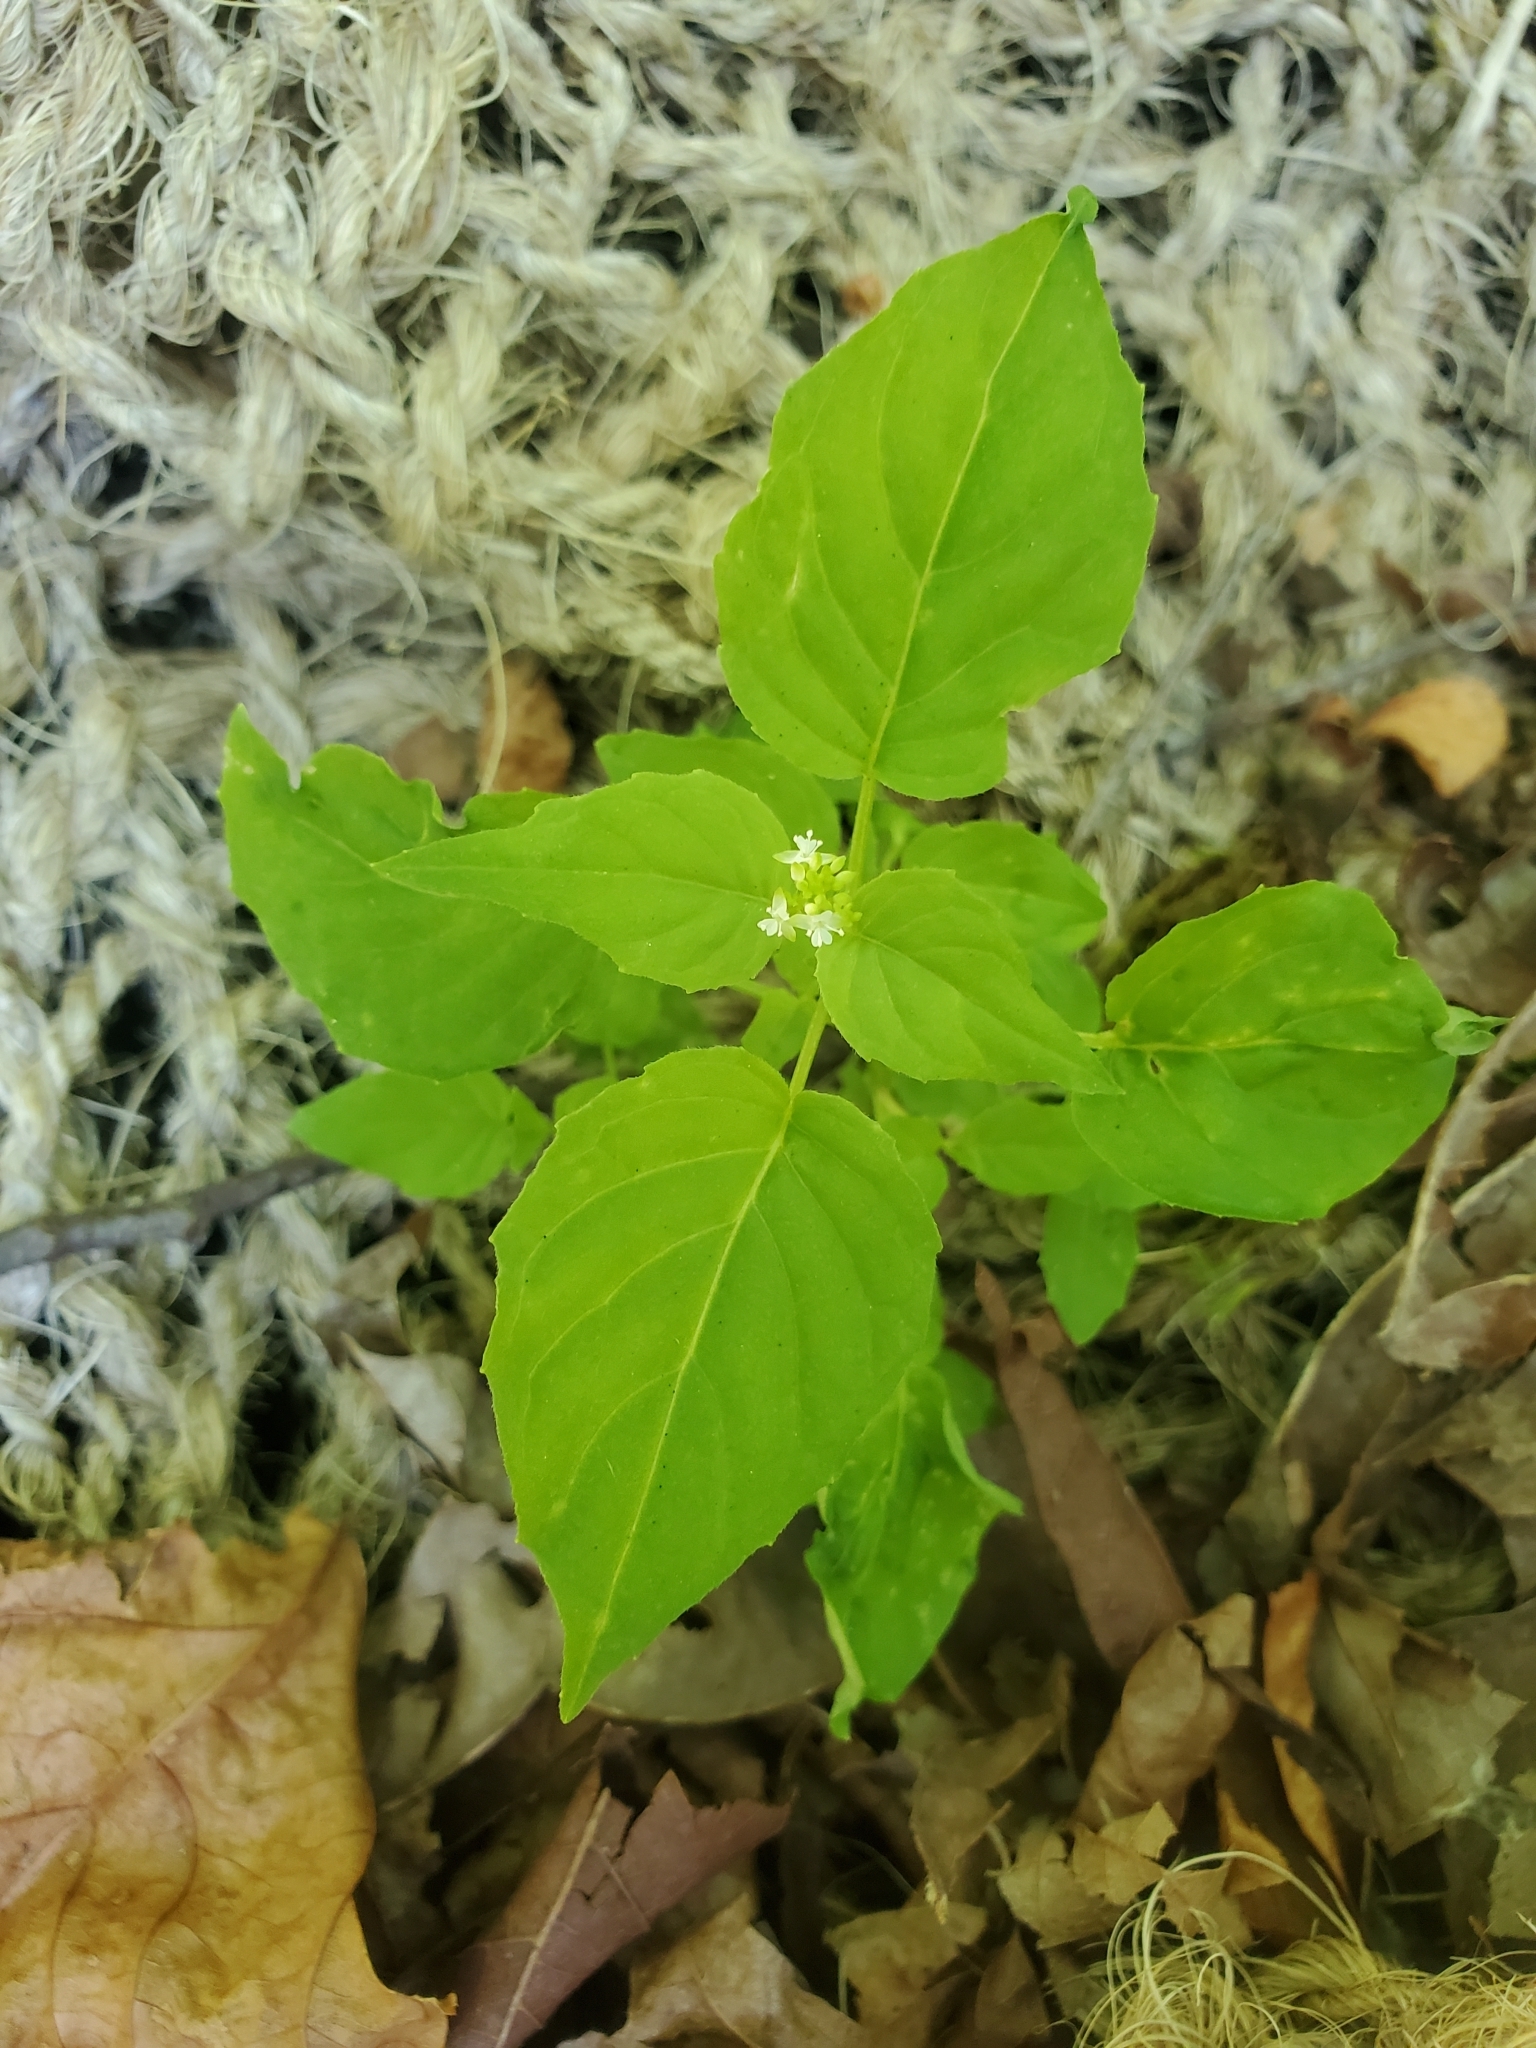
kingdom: Plantae
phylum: Tracheophyta
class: Magnoliopsida
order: Myrtales
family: Onagraceae
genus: Circaea
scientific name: Circaea alpina
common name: Alpine enchanter's-nightshade
